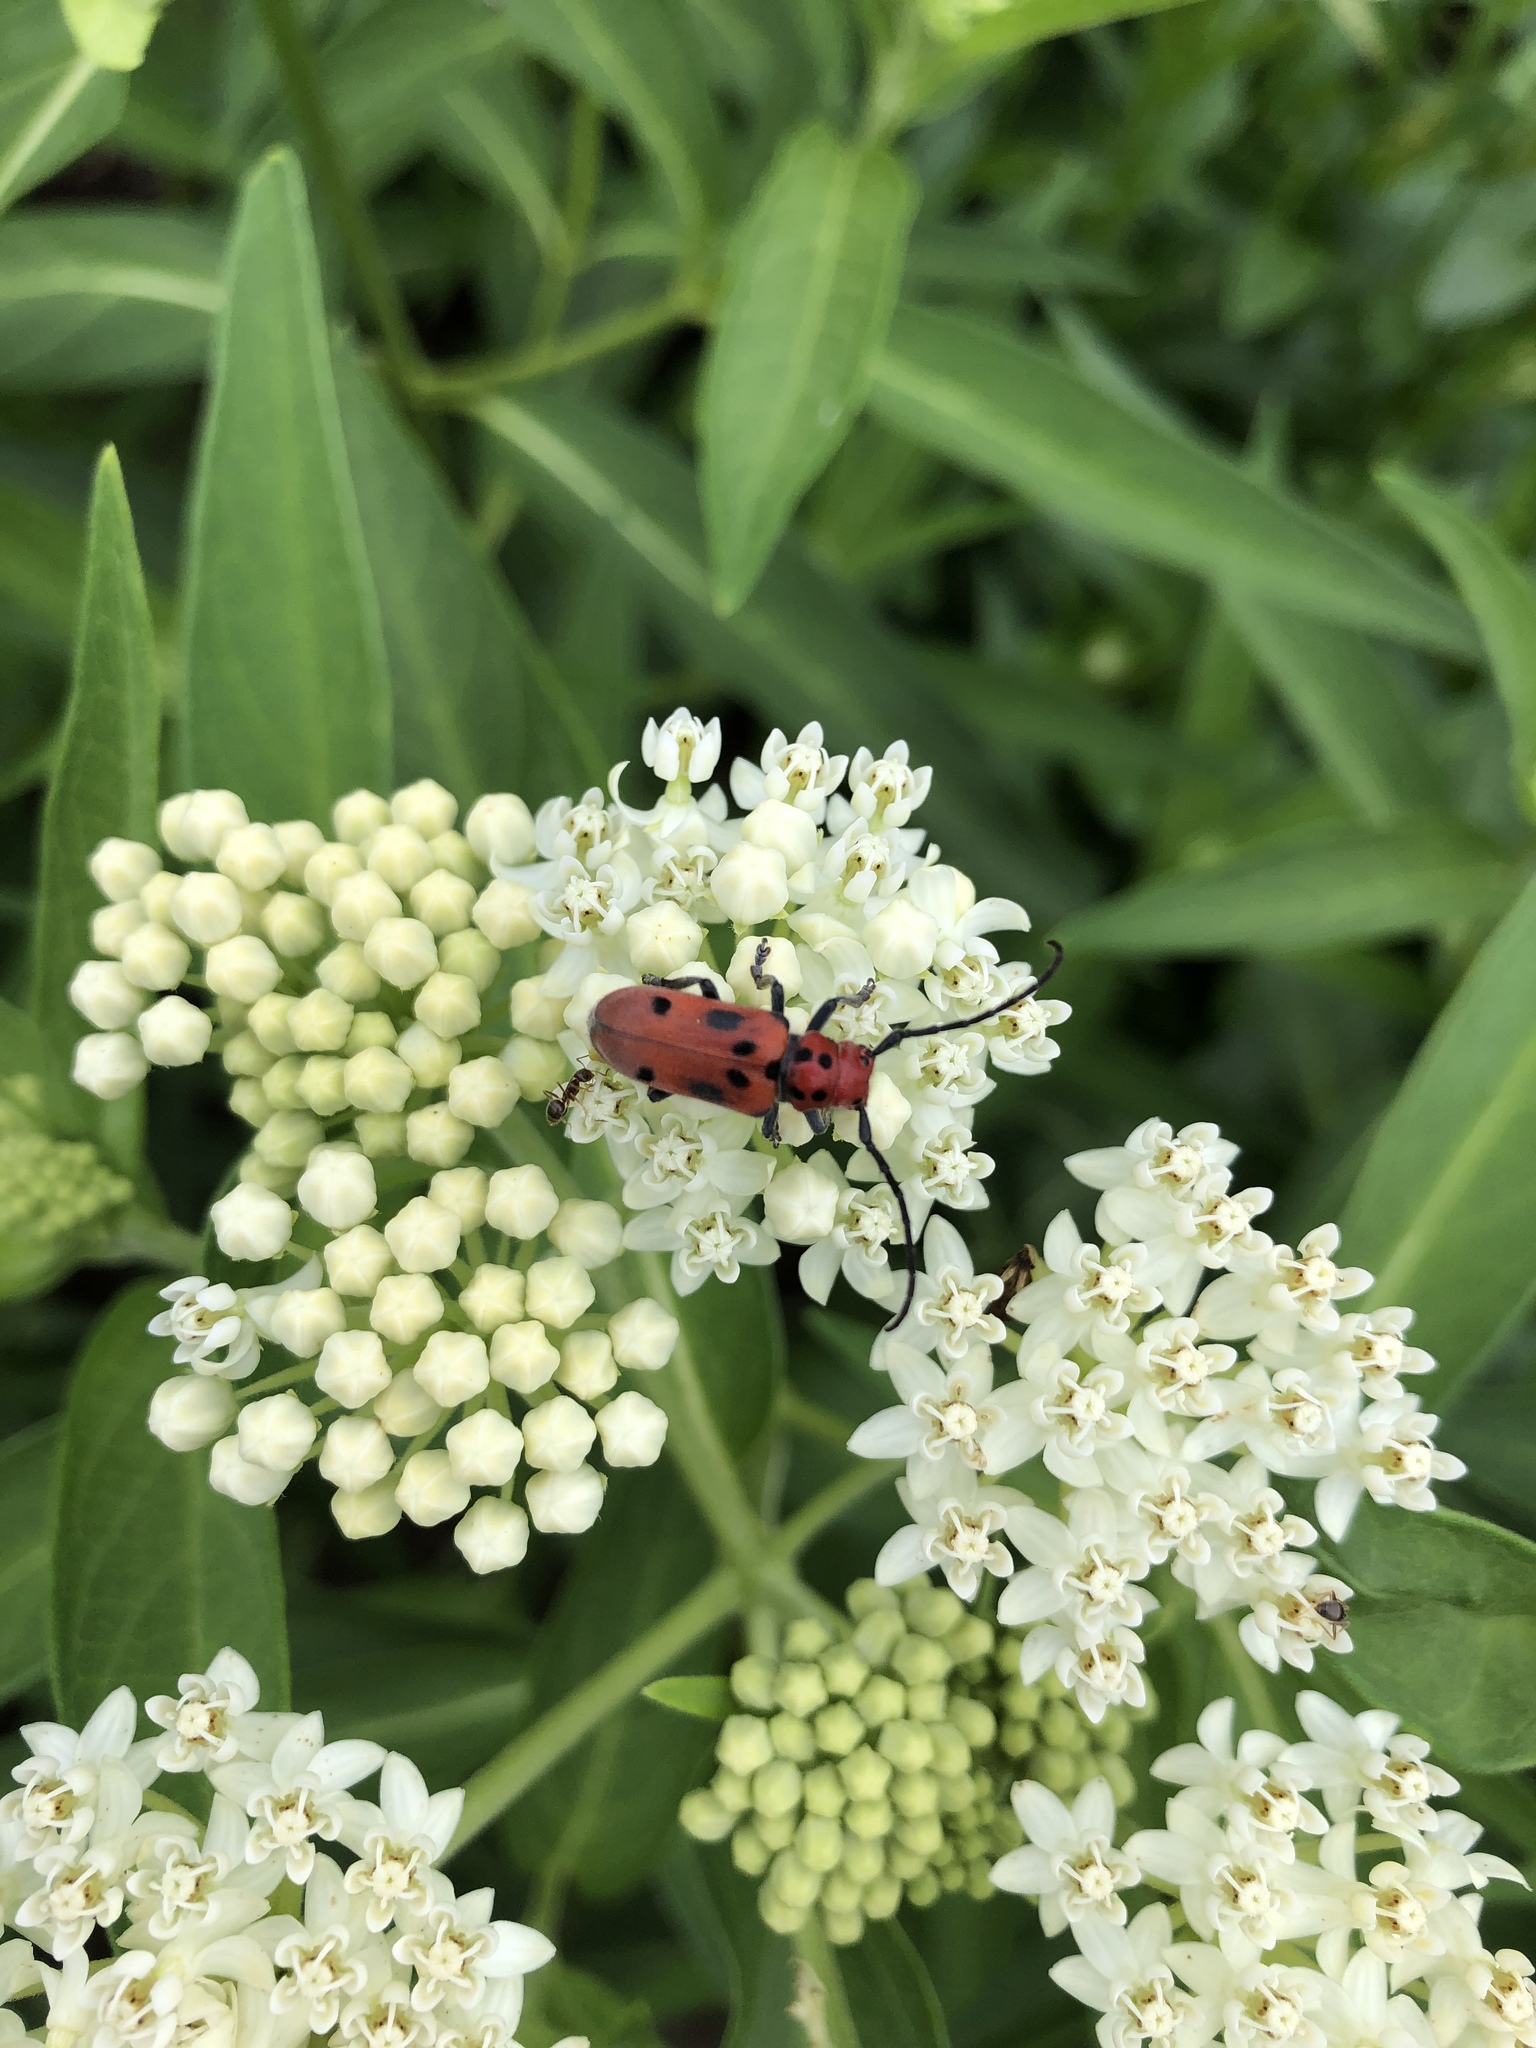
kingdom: Animalia
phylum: Arthropoda
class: Insecta
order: Coleoptera
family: Cerambycidae
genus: Tetraopes
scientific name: Tetraopes tetrophthalmus
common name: Red milkweed beetle
